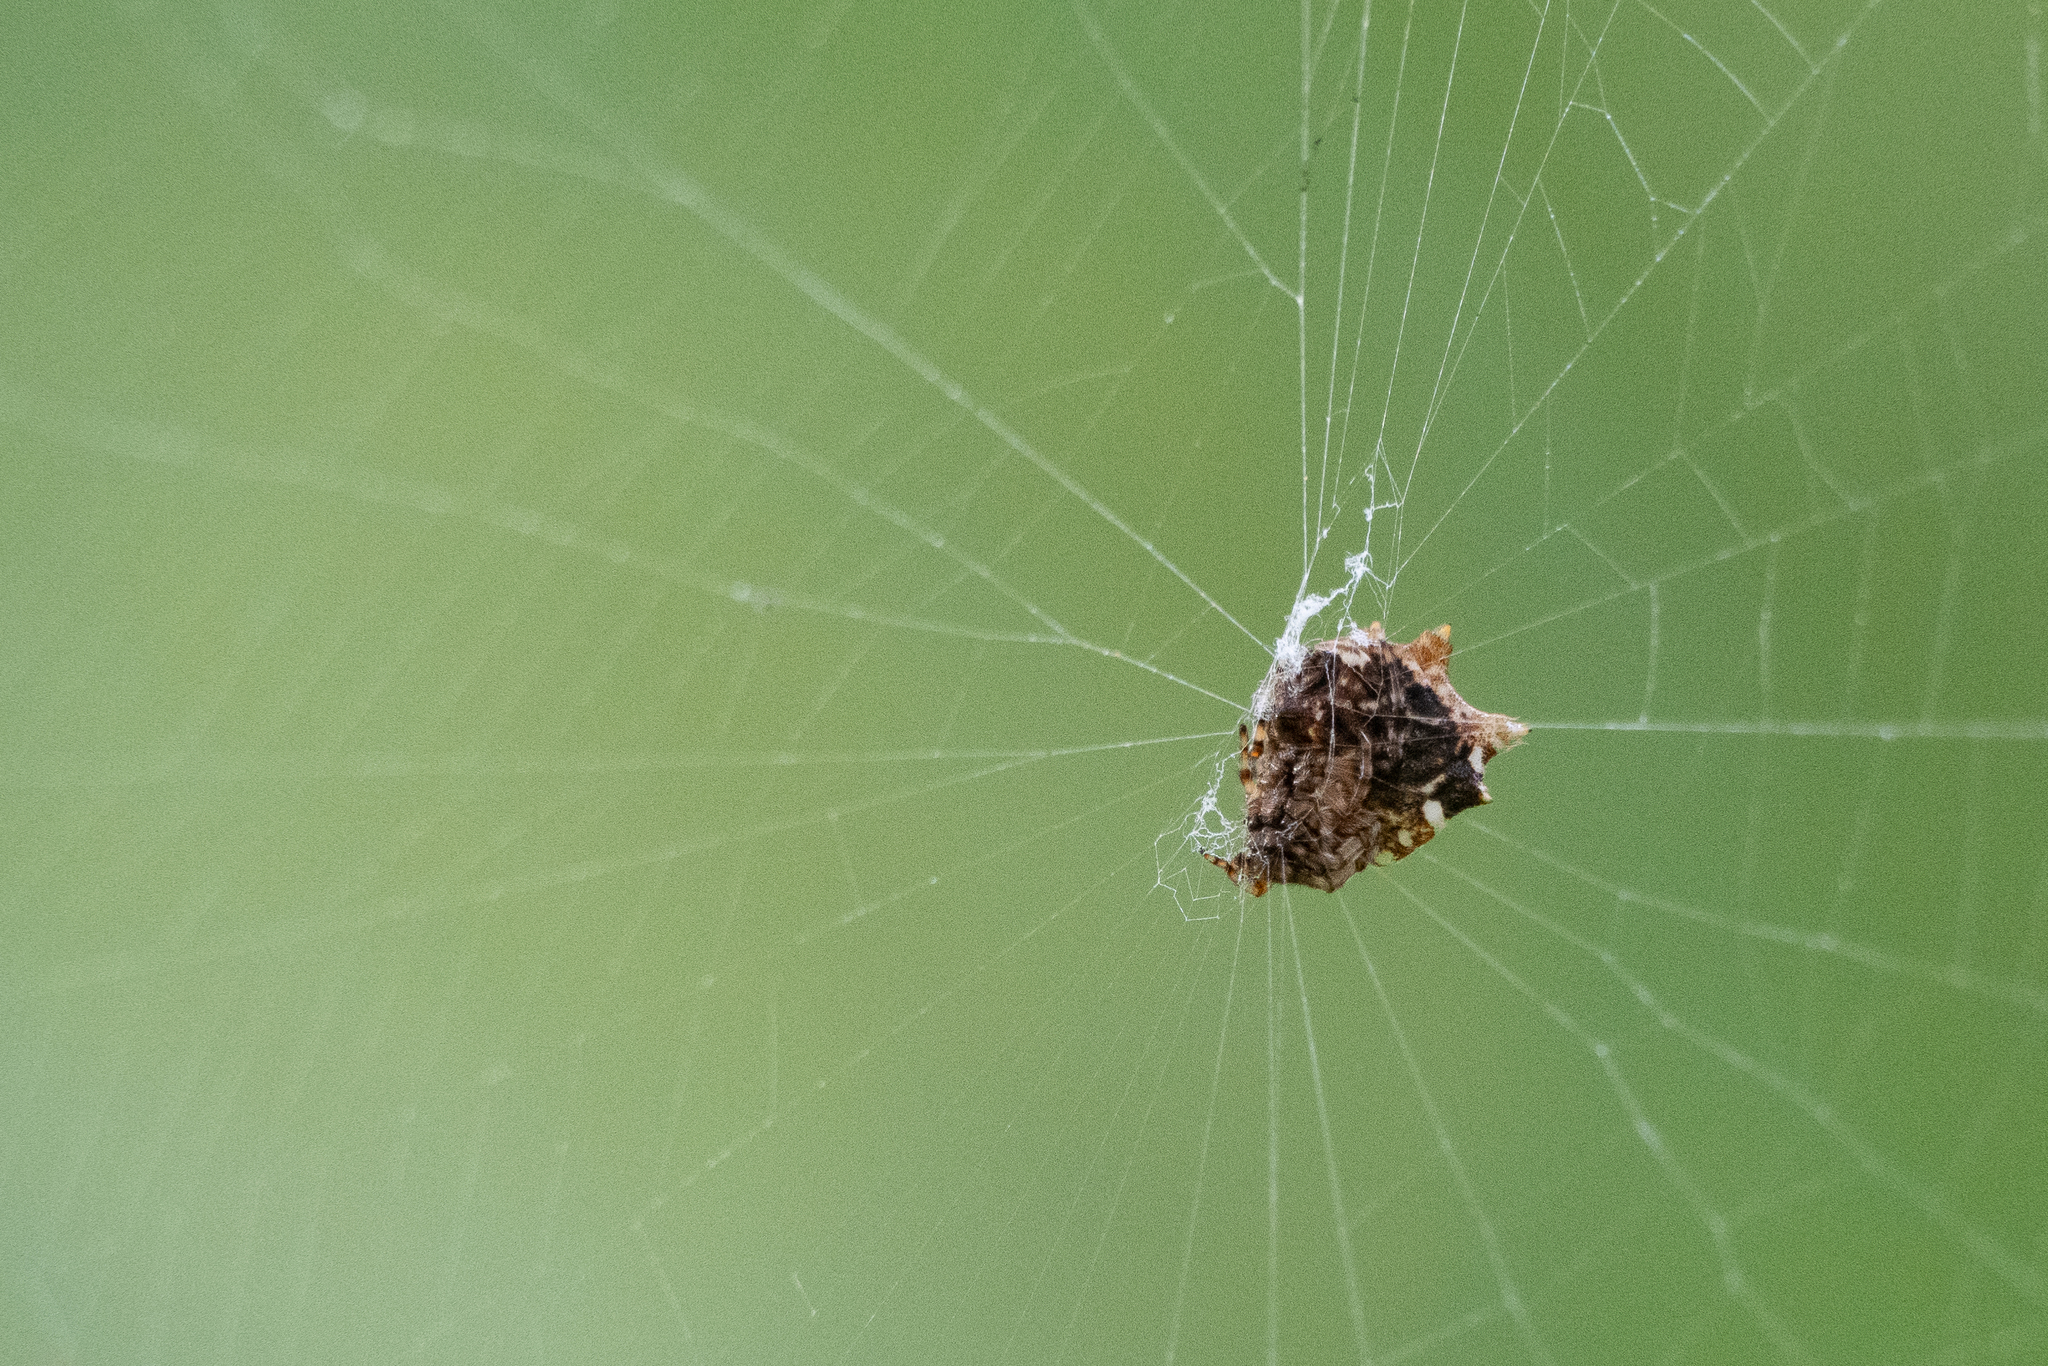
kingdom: Animalia
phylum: Arthropoda
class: Arachnida
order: Araneae
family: Araneidae
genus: Thelacantha
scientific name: Thelacantha brevispina
